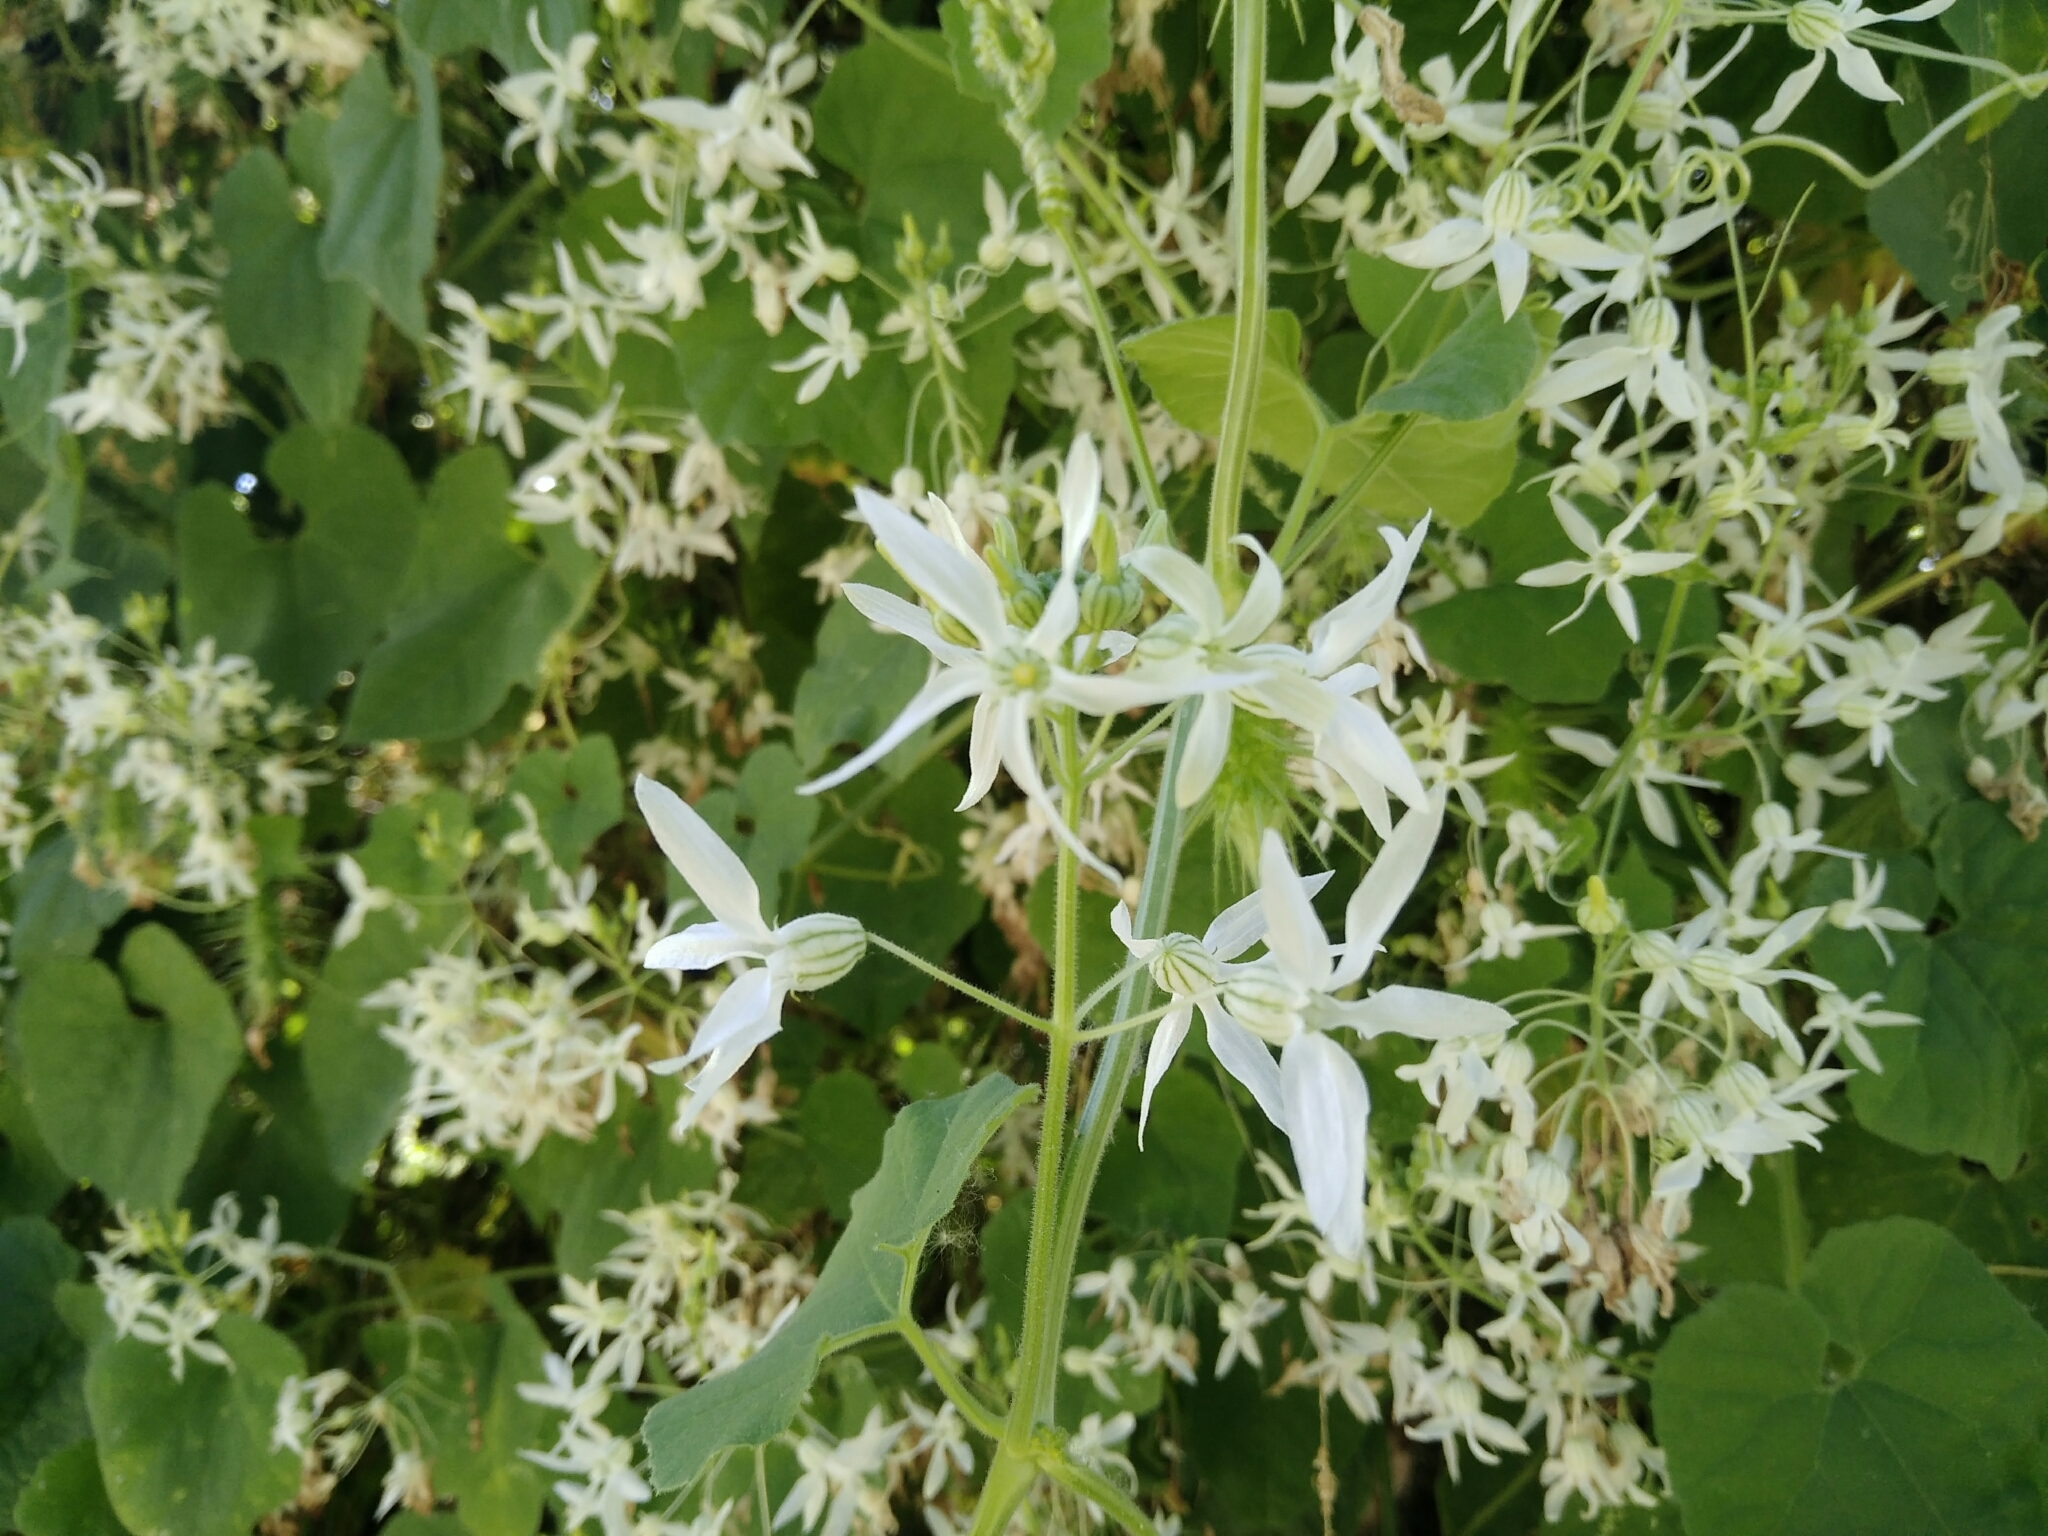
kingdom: Plantae
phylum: Tracheophyta
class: Magnoliopsida
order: Cucurbitales
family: Cucurbitaceae
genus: Echinopepon
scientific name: Echinopepon pubescens
